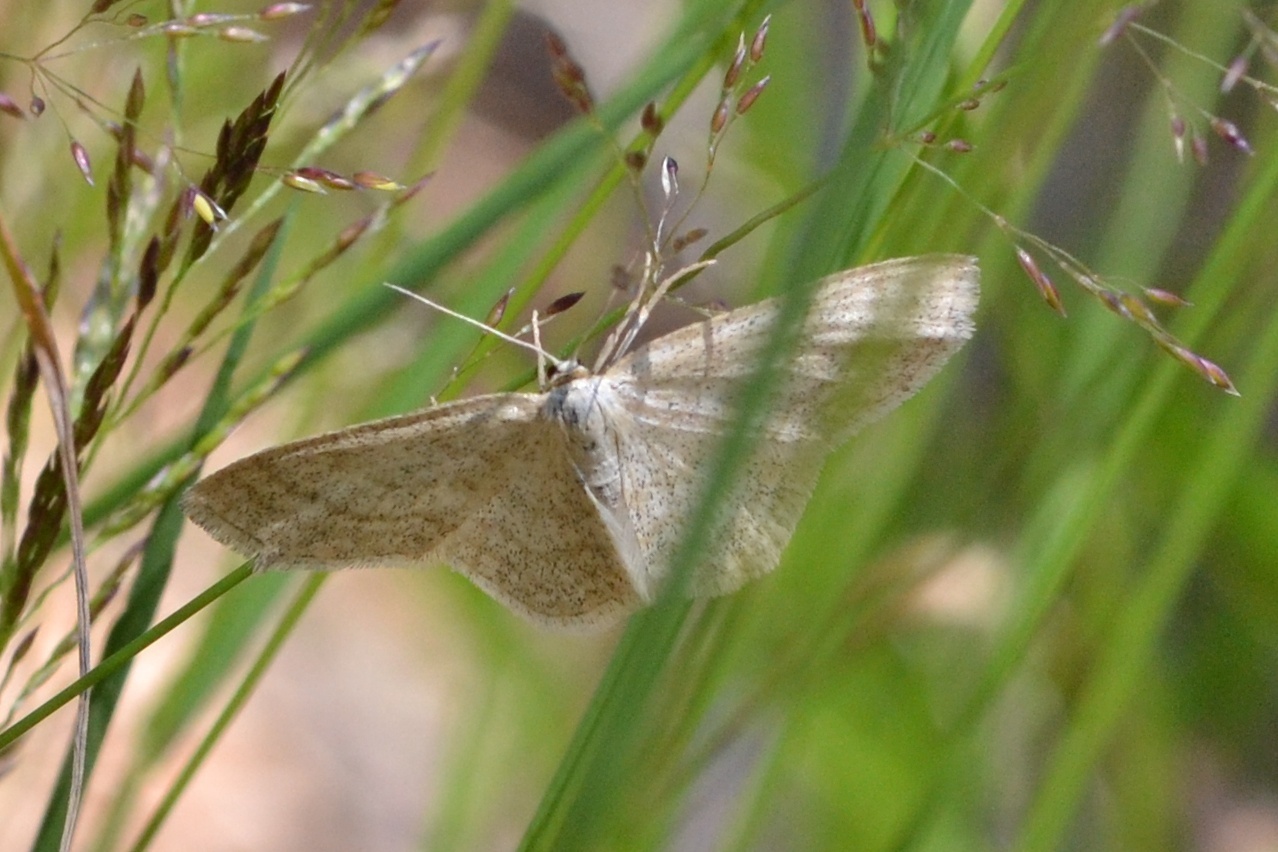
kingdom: Animalia
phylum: Arthropoda
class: Insecta
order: Lepidoptera
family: Geometridae
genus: Scopula
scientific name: Scopula ternata
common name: Smoky wave
